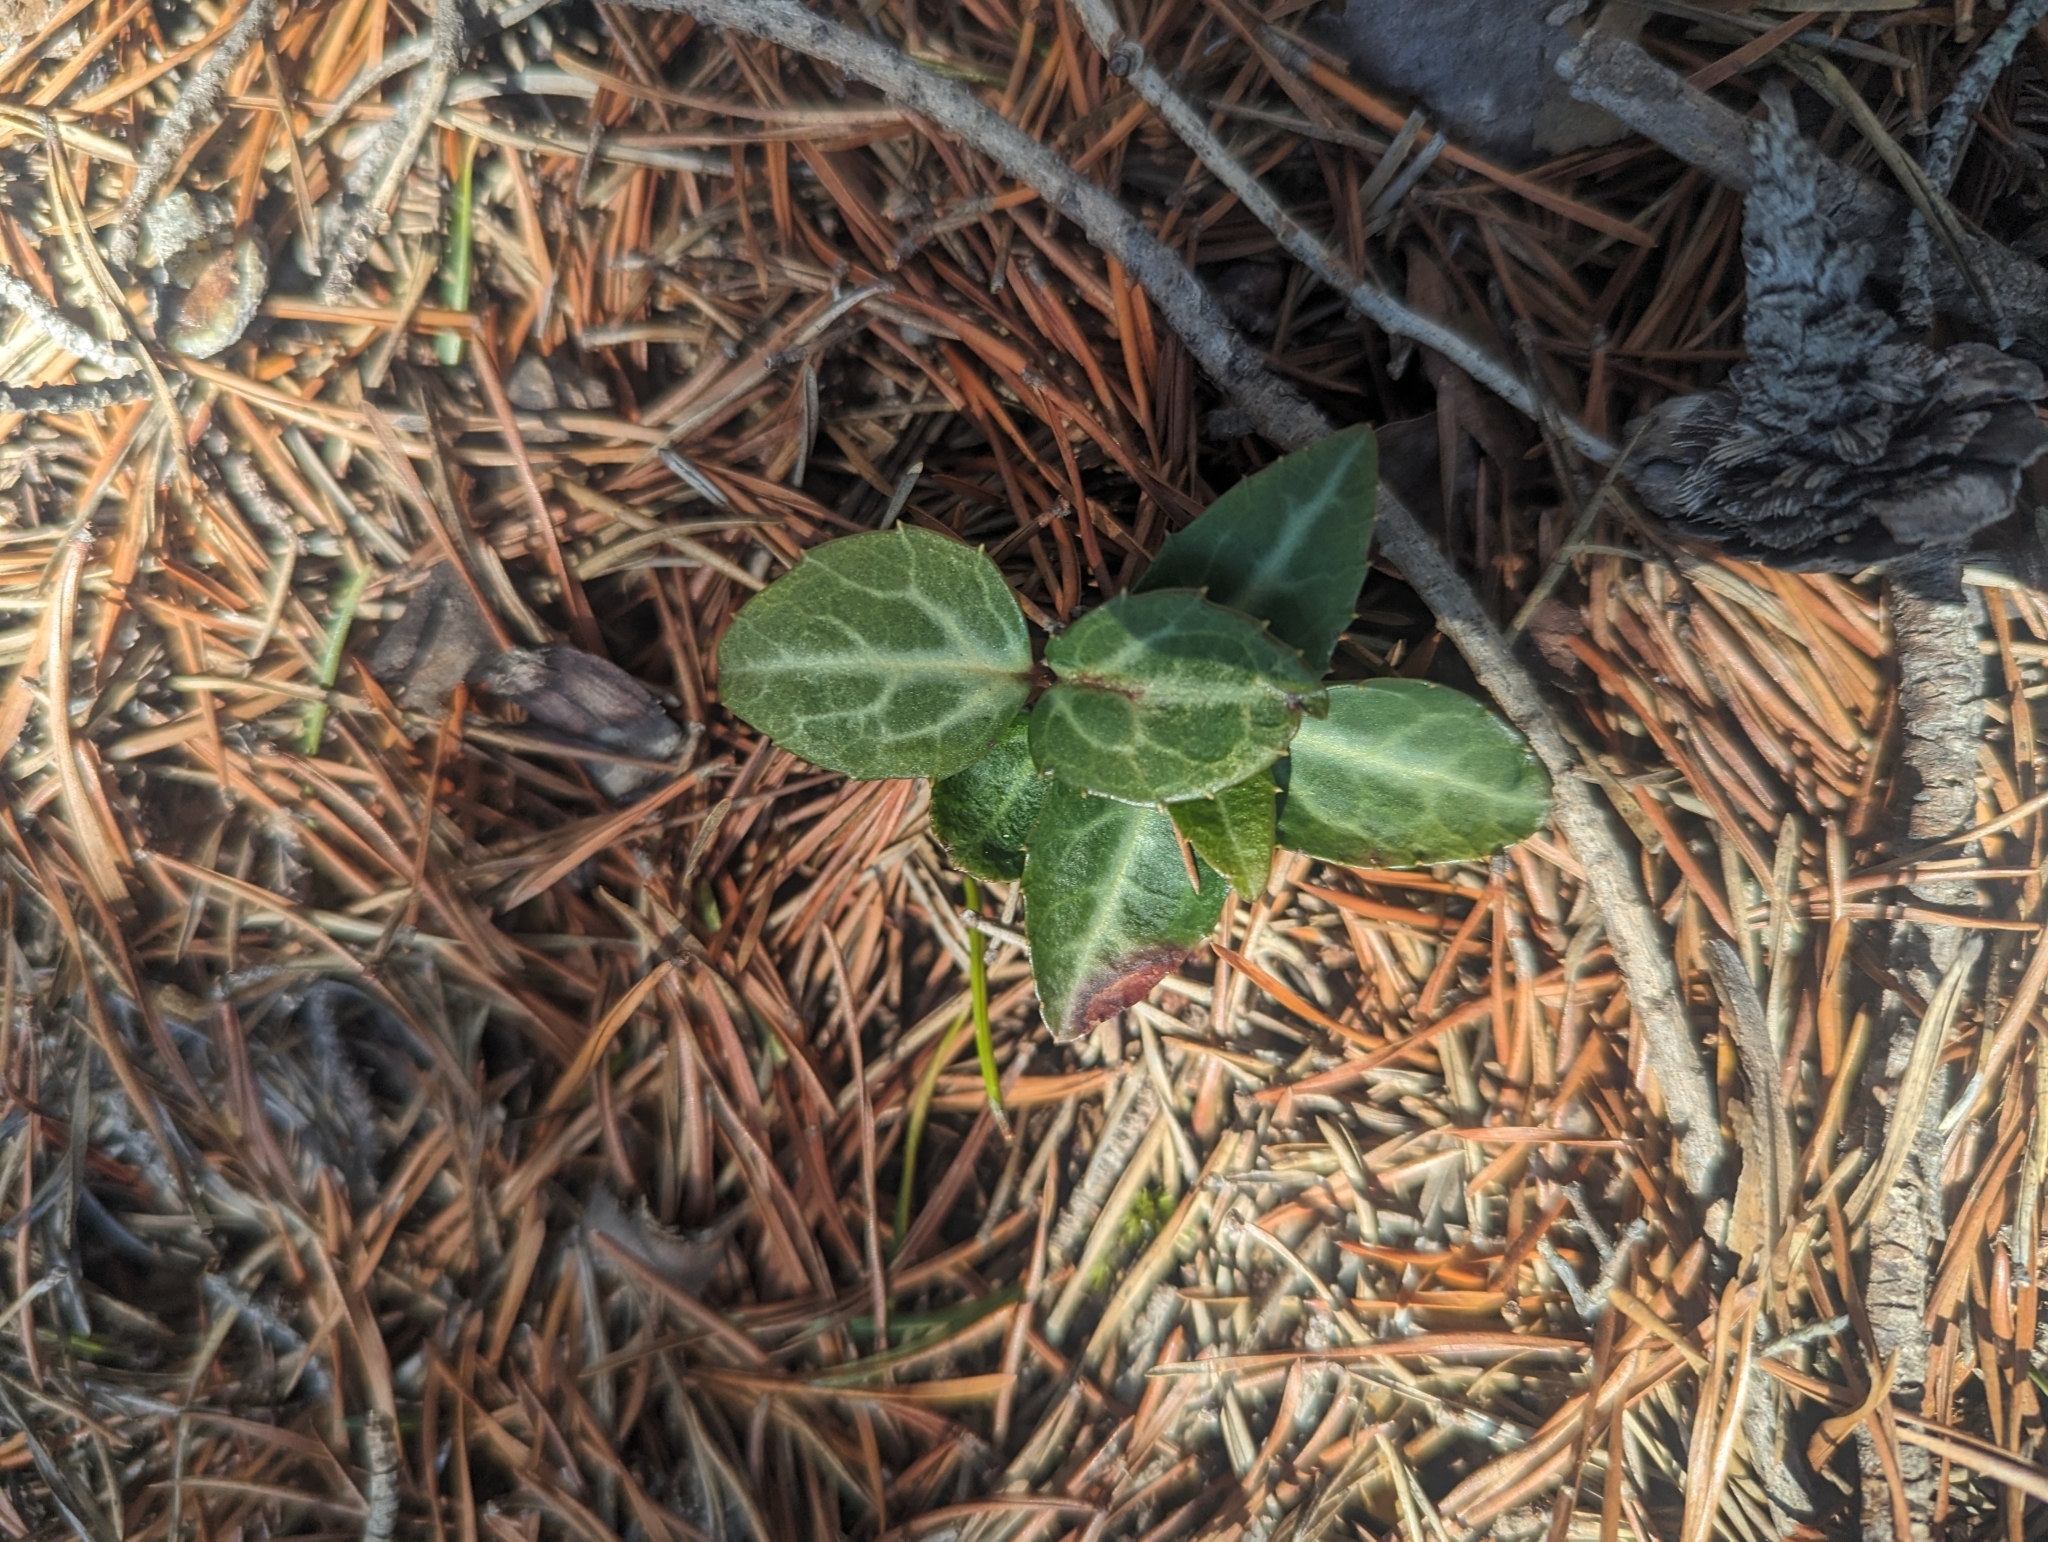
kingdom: Plantae
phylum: Tracheophyta
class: Magnoliopsida
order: Ericales
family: Ericaceae
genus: Chimaphila
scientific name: Chimaphila maculata
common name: Spotted pipsissewa
